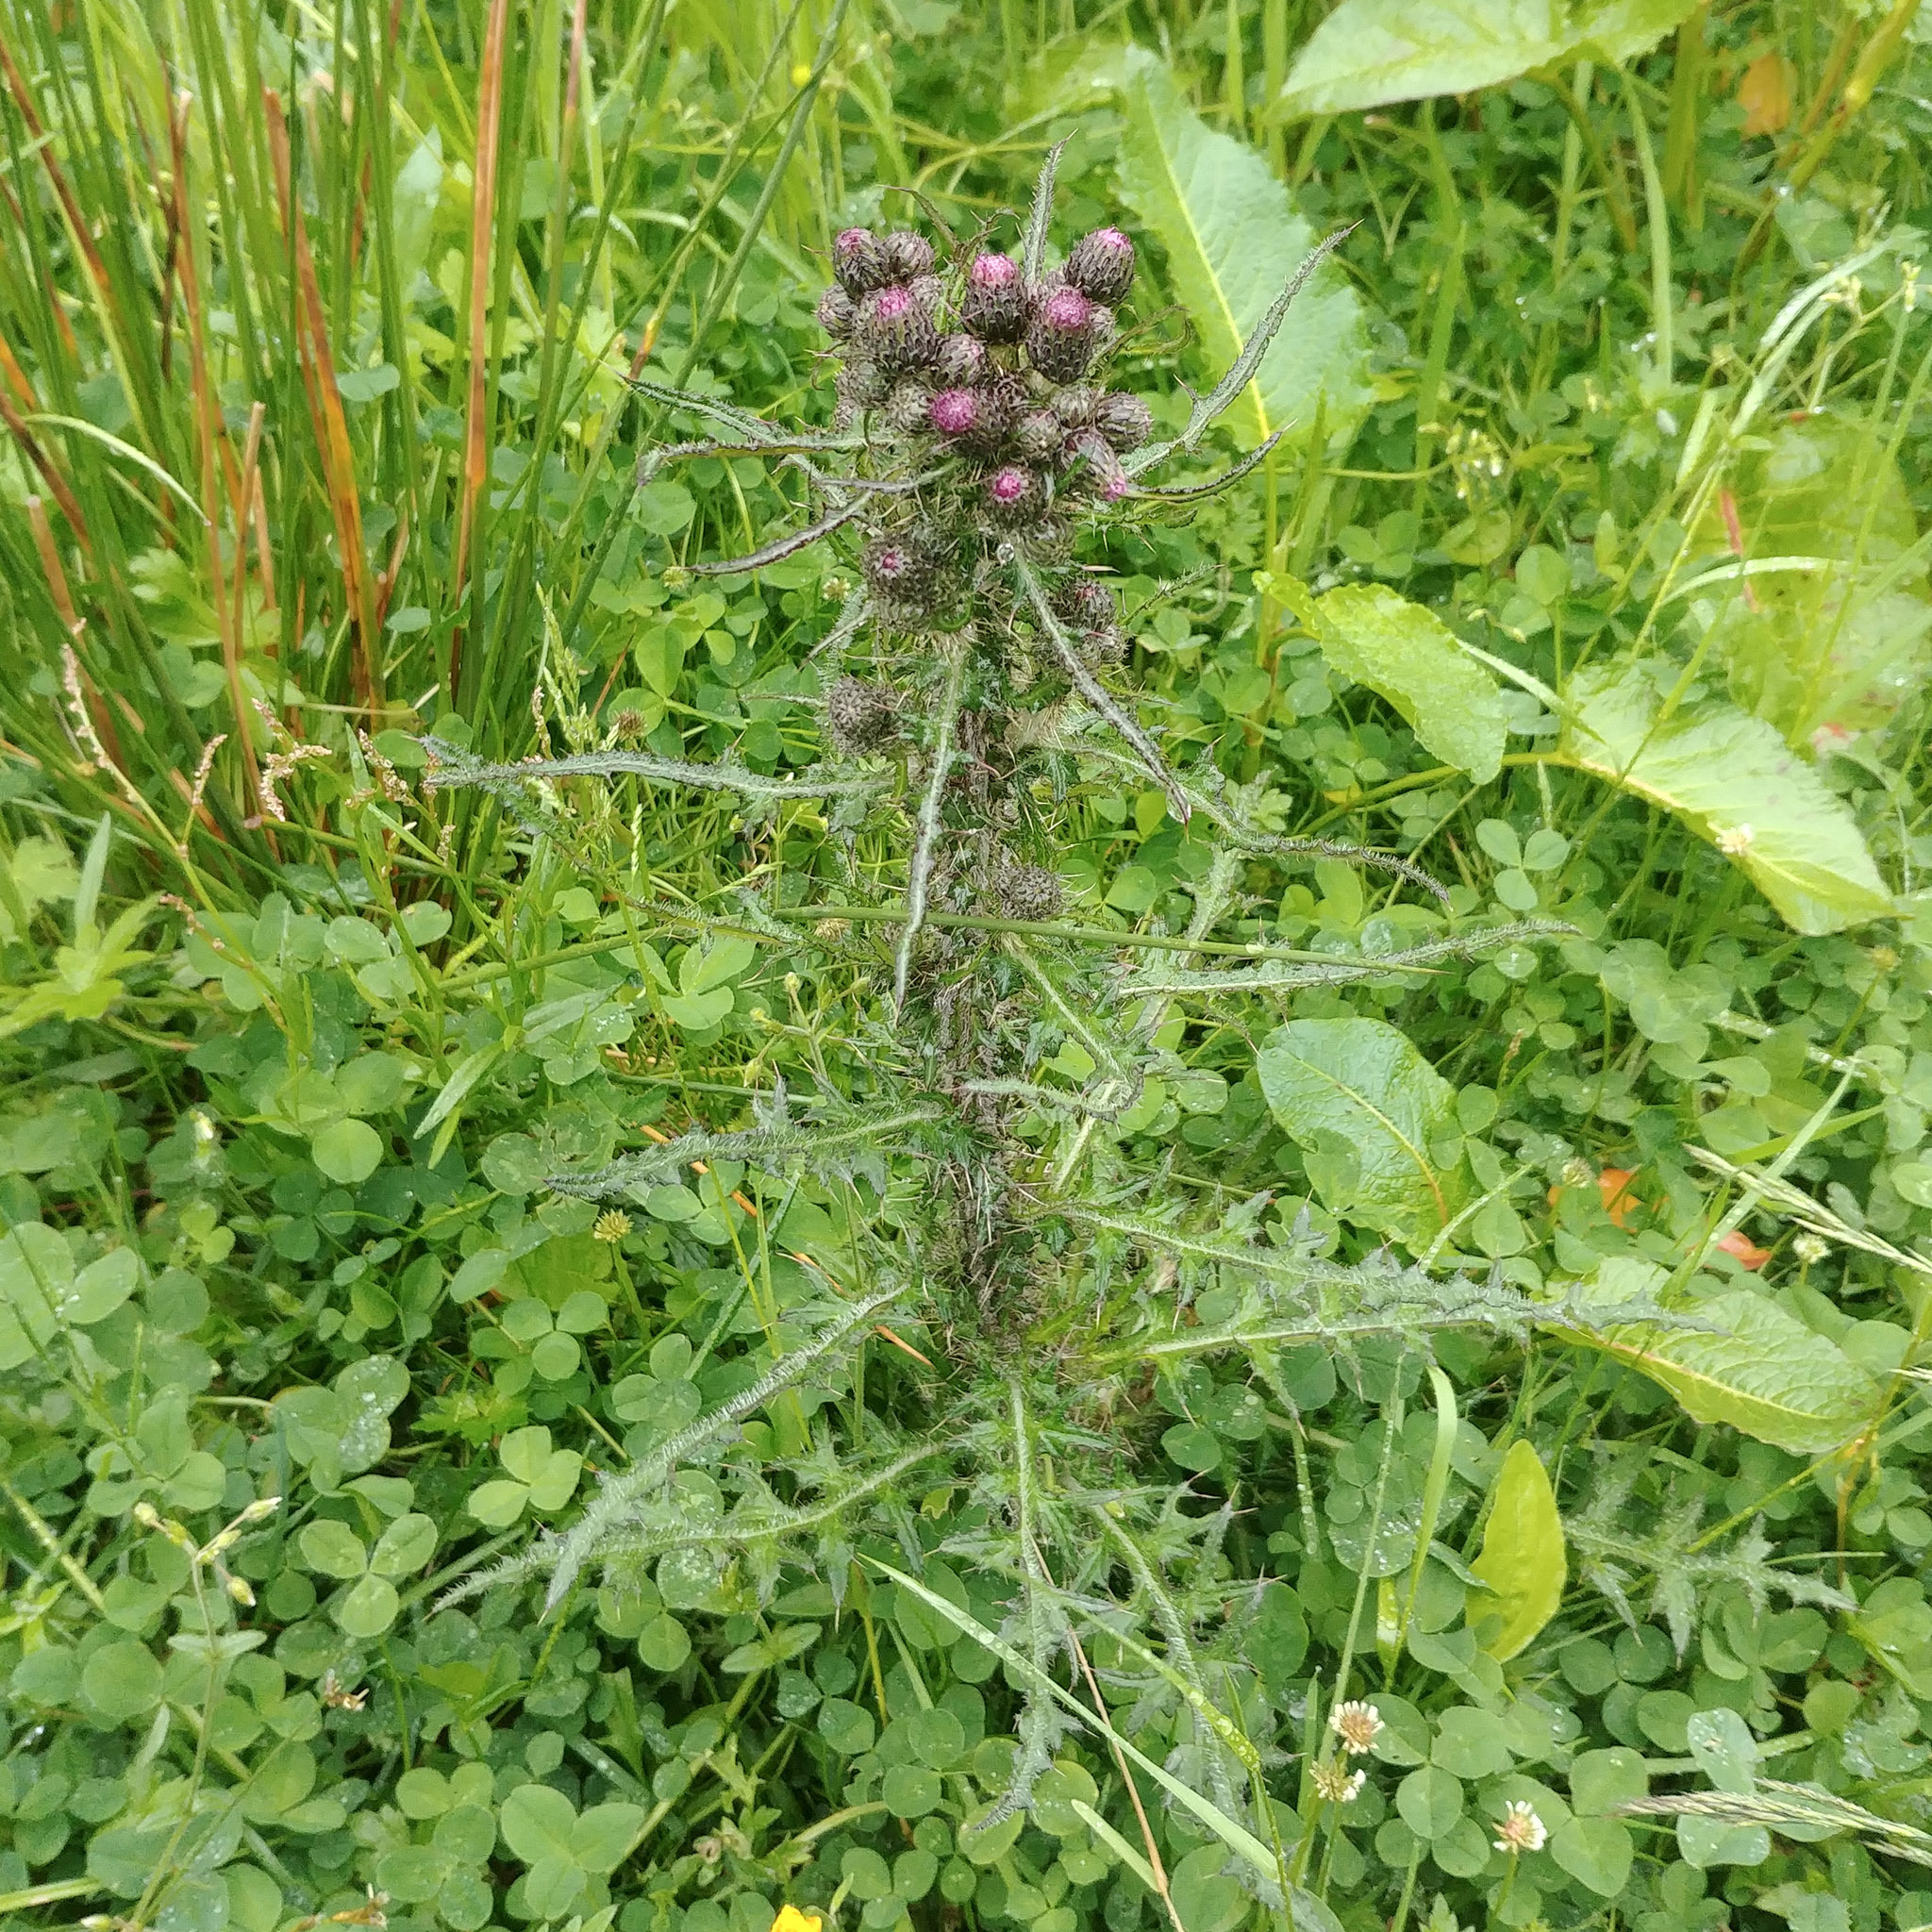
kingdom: Plantae
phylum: Tracheophyta
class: Magnoliopsida
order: Asterales
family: Asteraceae
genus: Cirsium
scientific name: Cirsium palustre
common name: Marsh thistle
